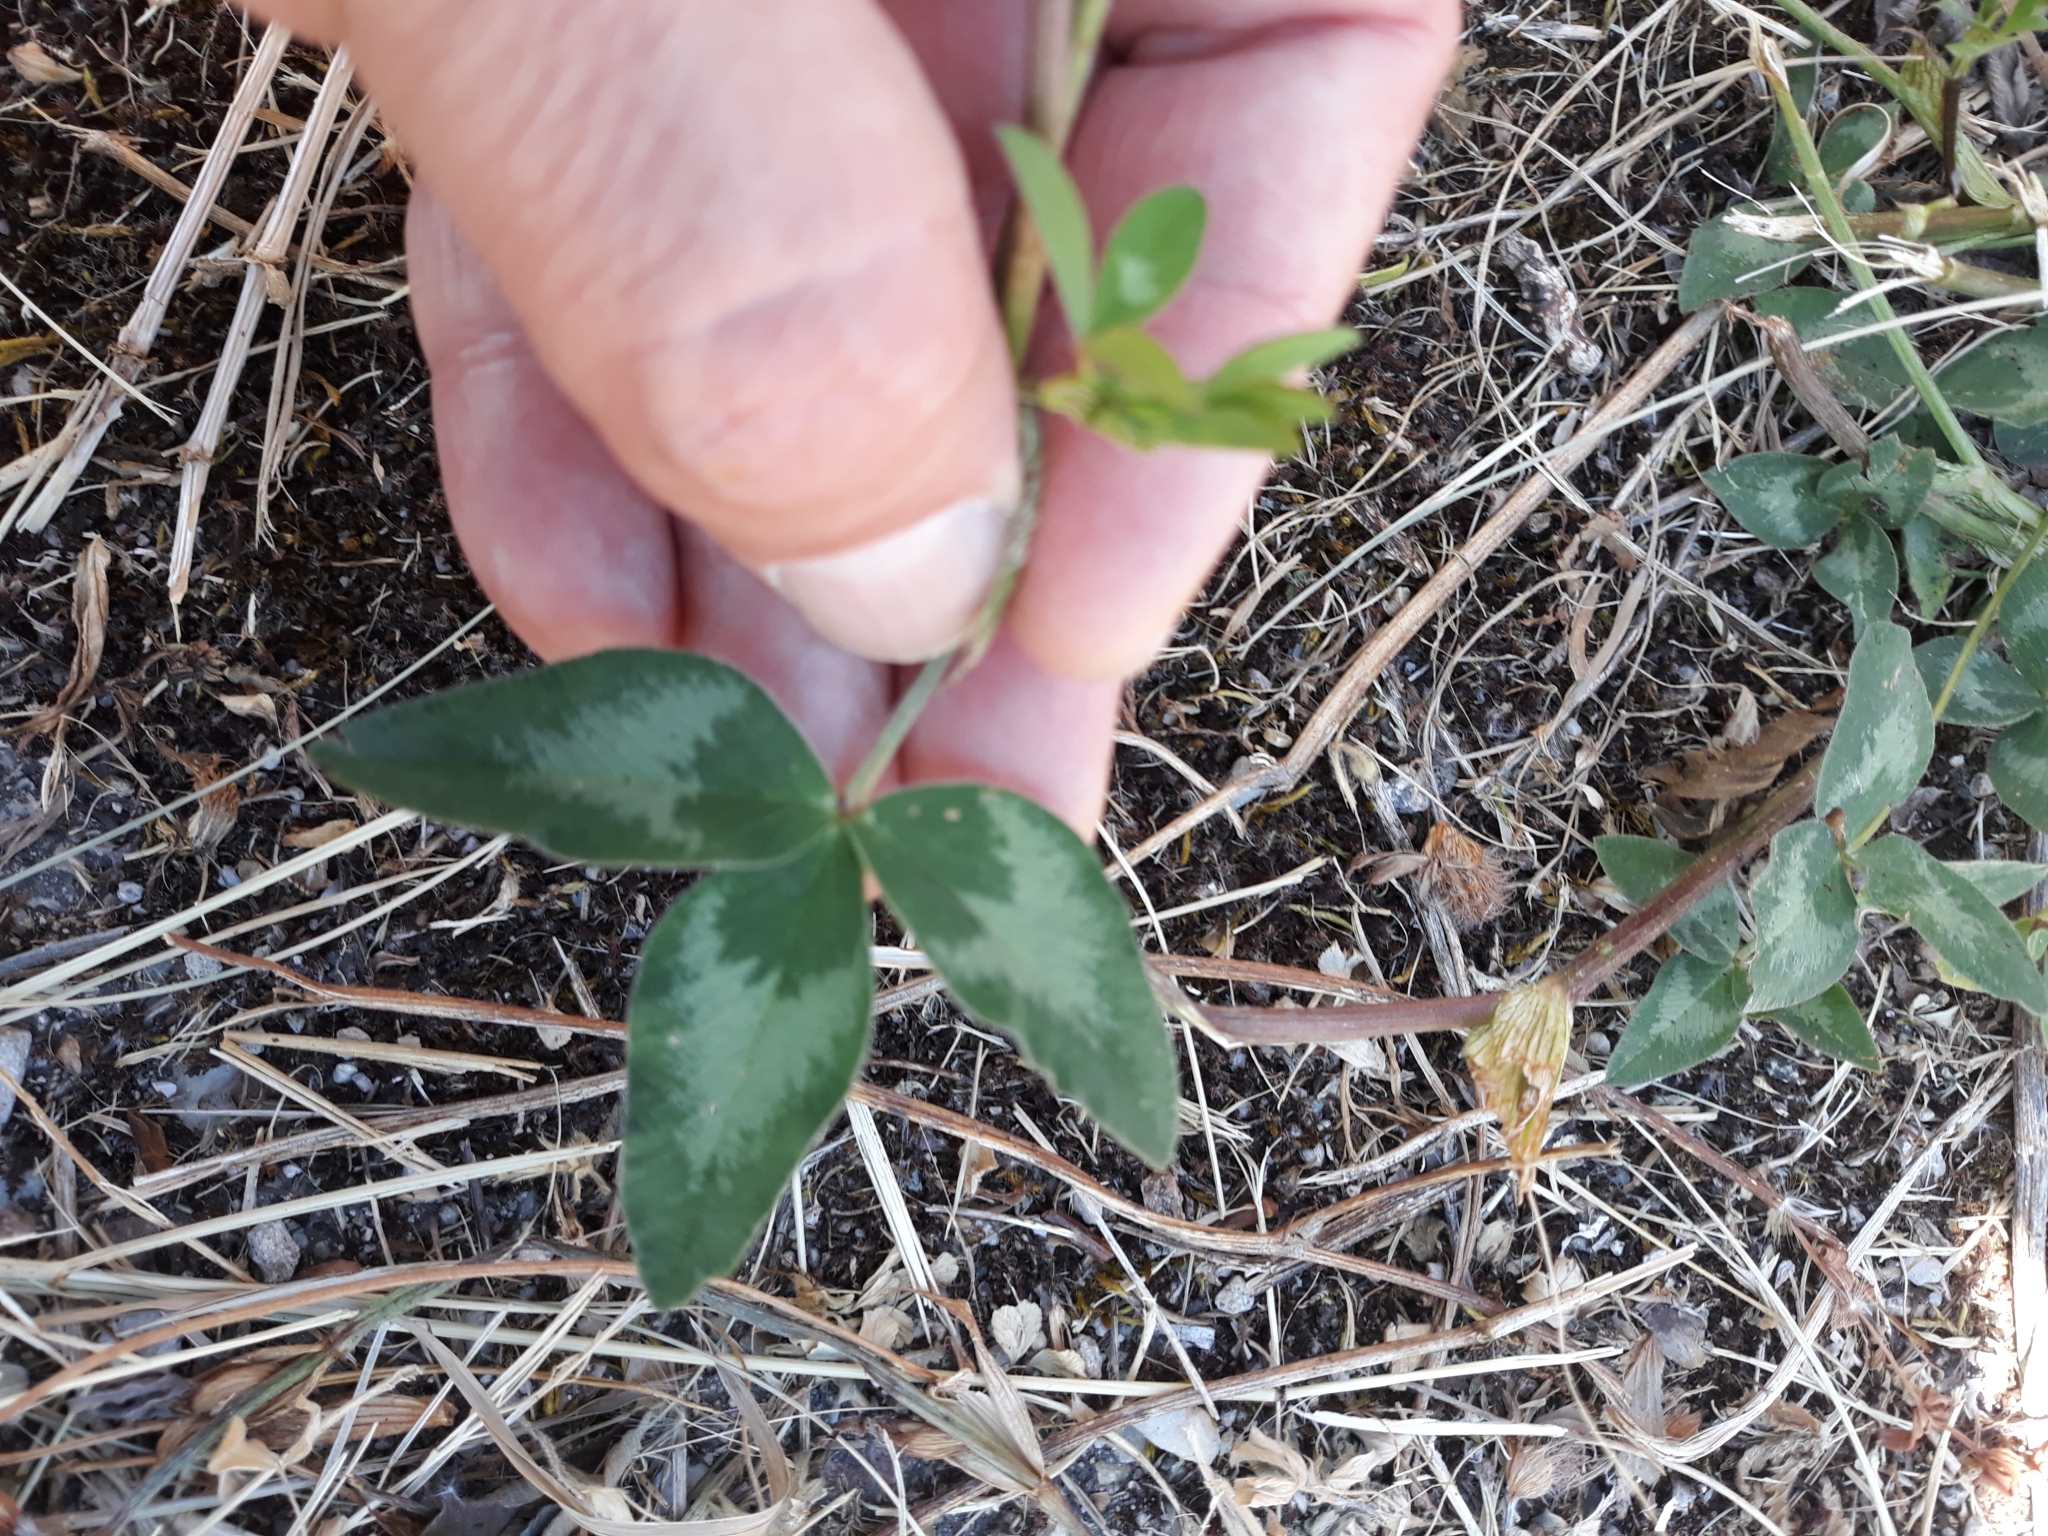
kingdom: Plantae
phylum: Tracheophyta
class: Magnoliopsida
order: Fabales
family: Fabaceae
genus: Trifolium
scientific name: Trifolium pratense
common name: Red clover
